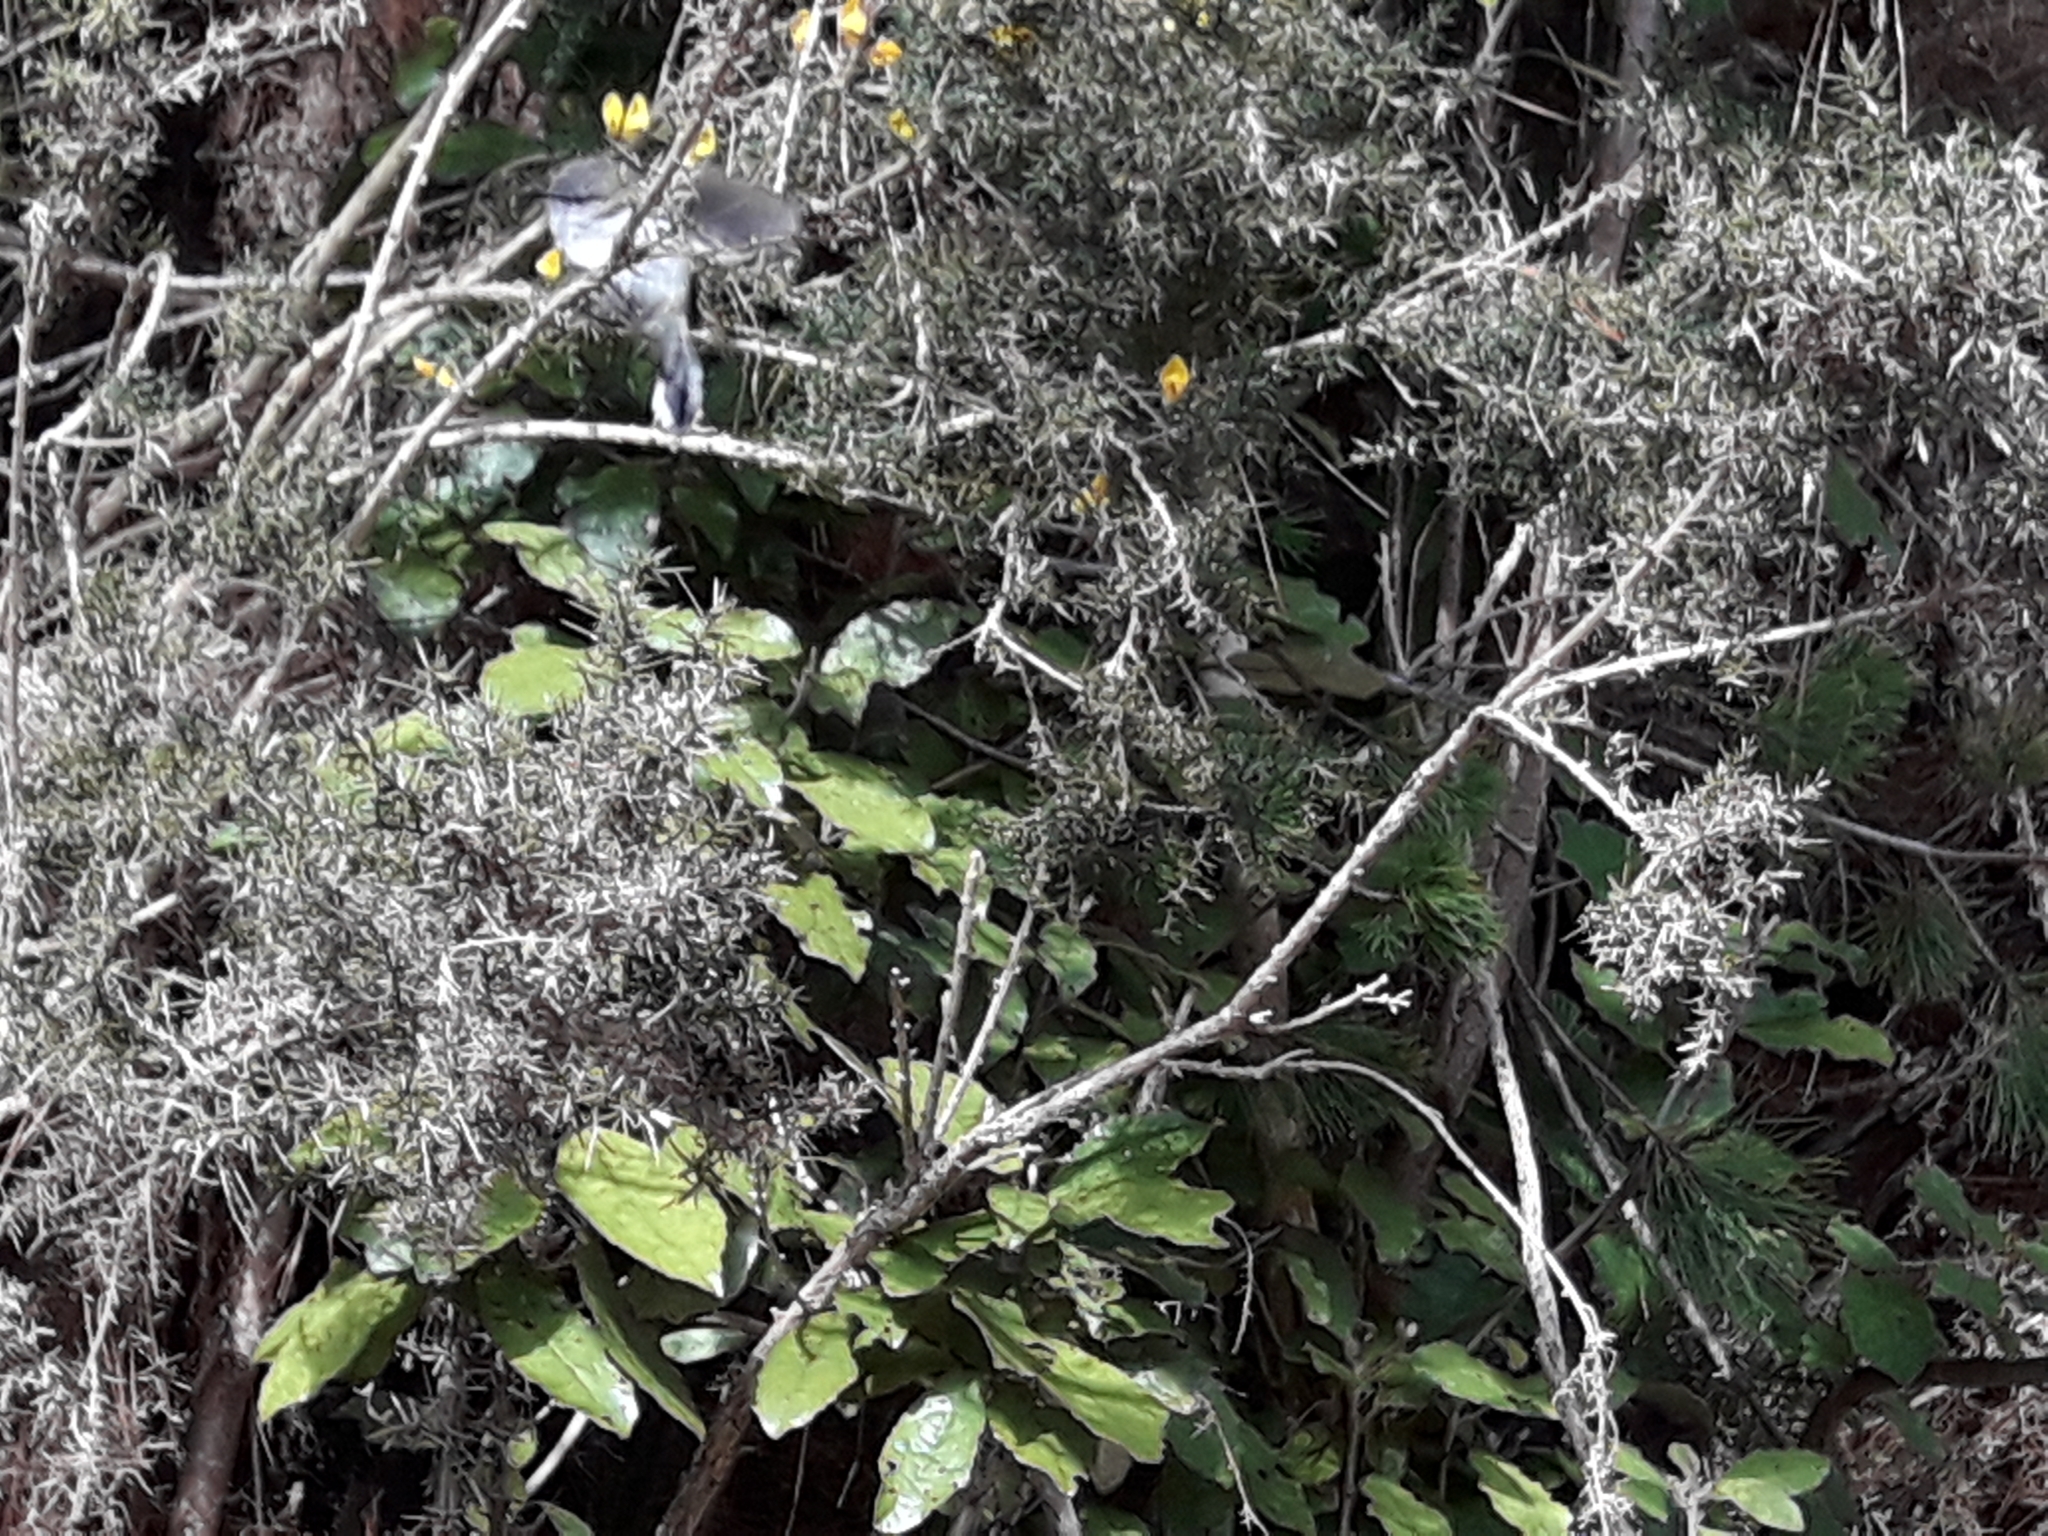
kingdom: Animalia
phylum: Chordata
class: Aves
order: Passeriformes
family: Acanthizidae
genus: Gerygone
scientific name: Gerygone igata
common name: Grey gerygone
